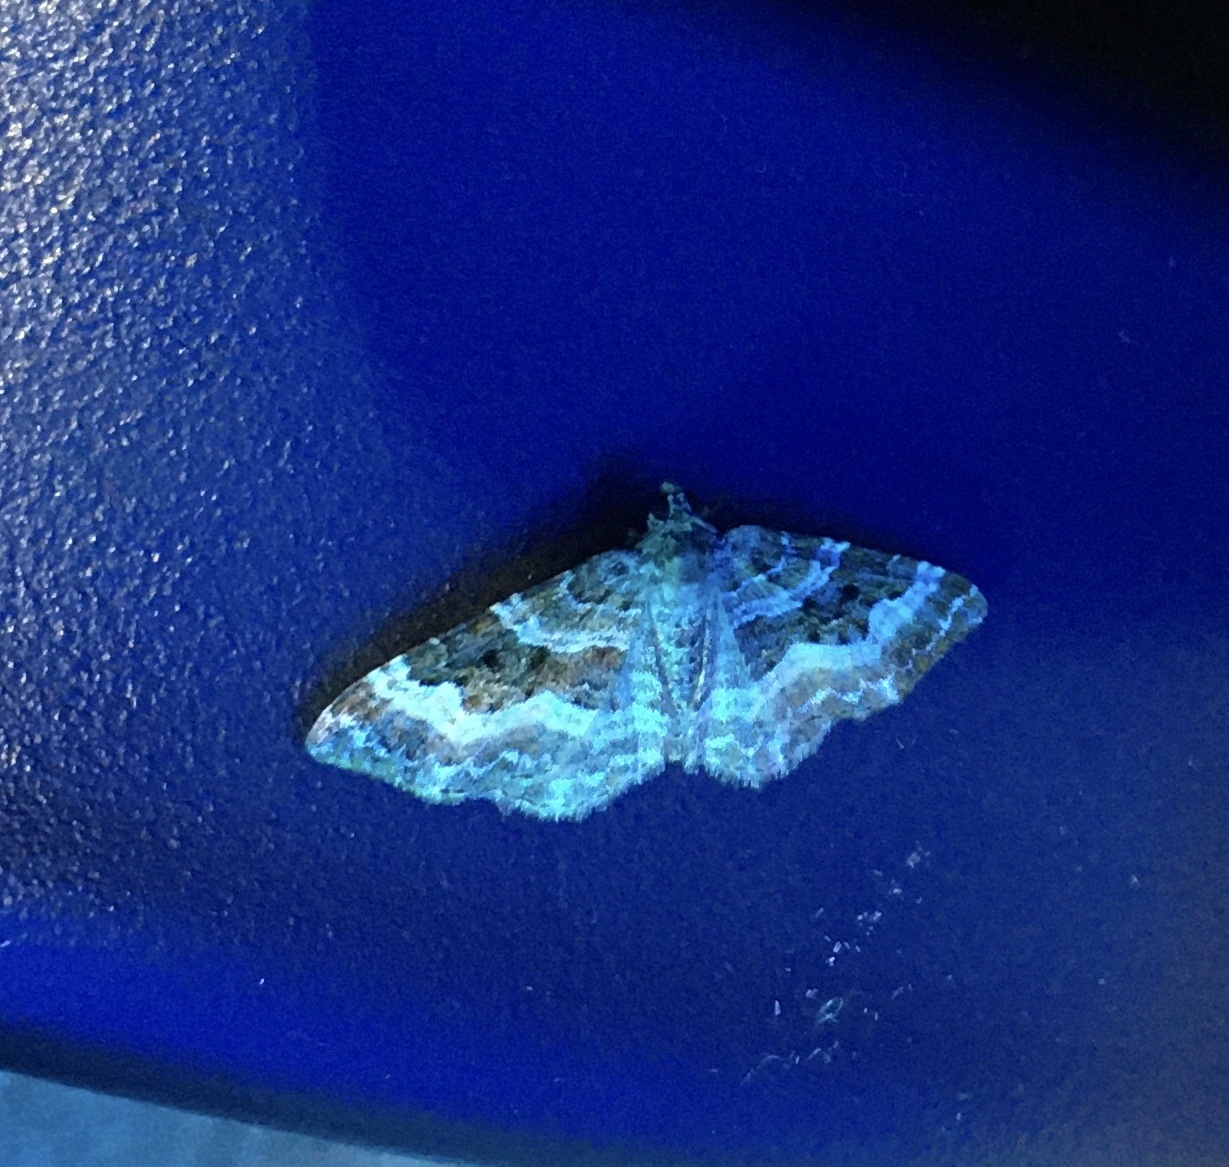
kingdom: Animalia
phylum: Arthropoda
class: Insecta
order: Lepidoptera
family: Geometridae
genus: Epirrhoe
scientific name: Epirrhoe alternata
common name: Common carpet
